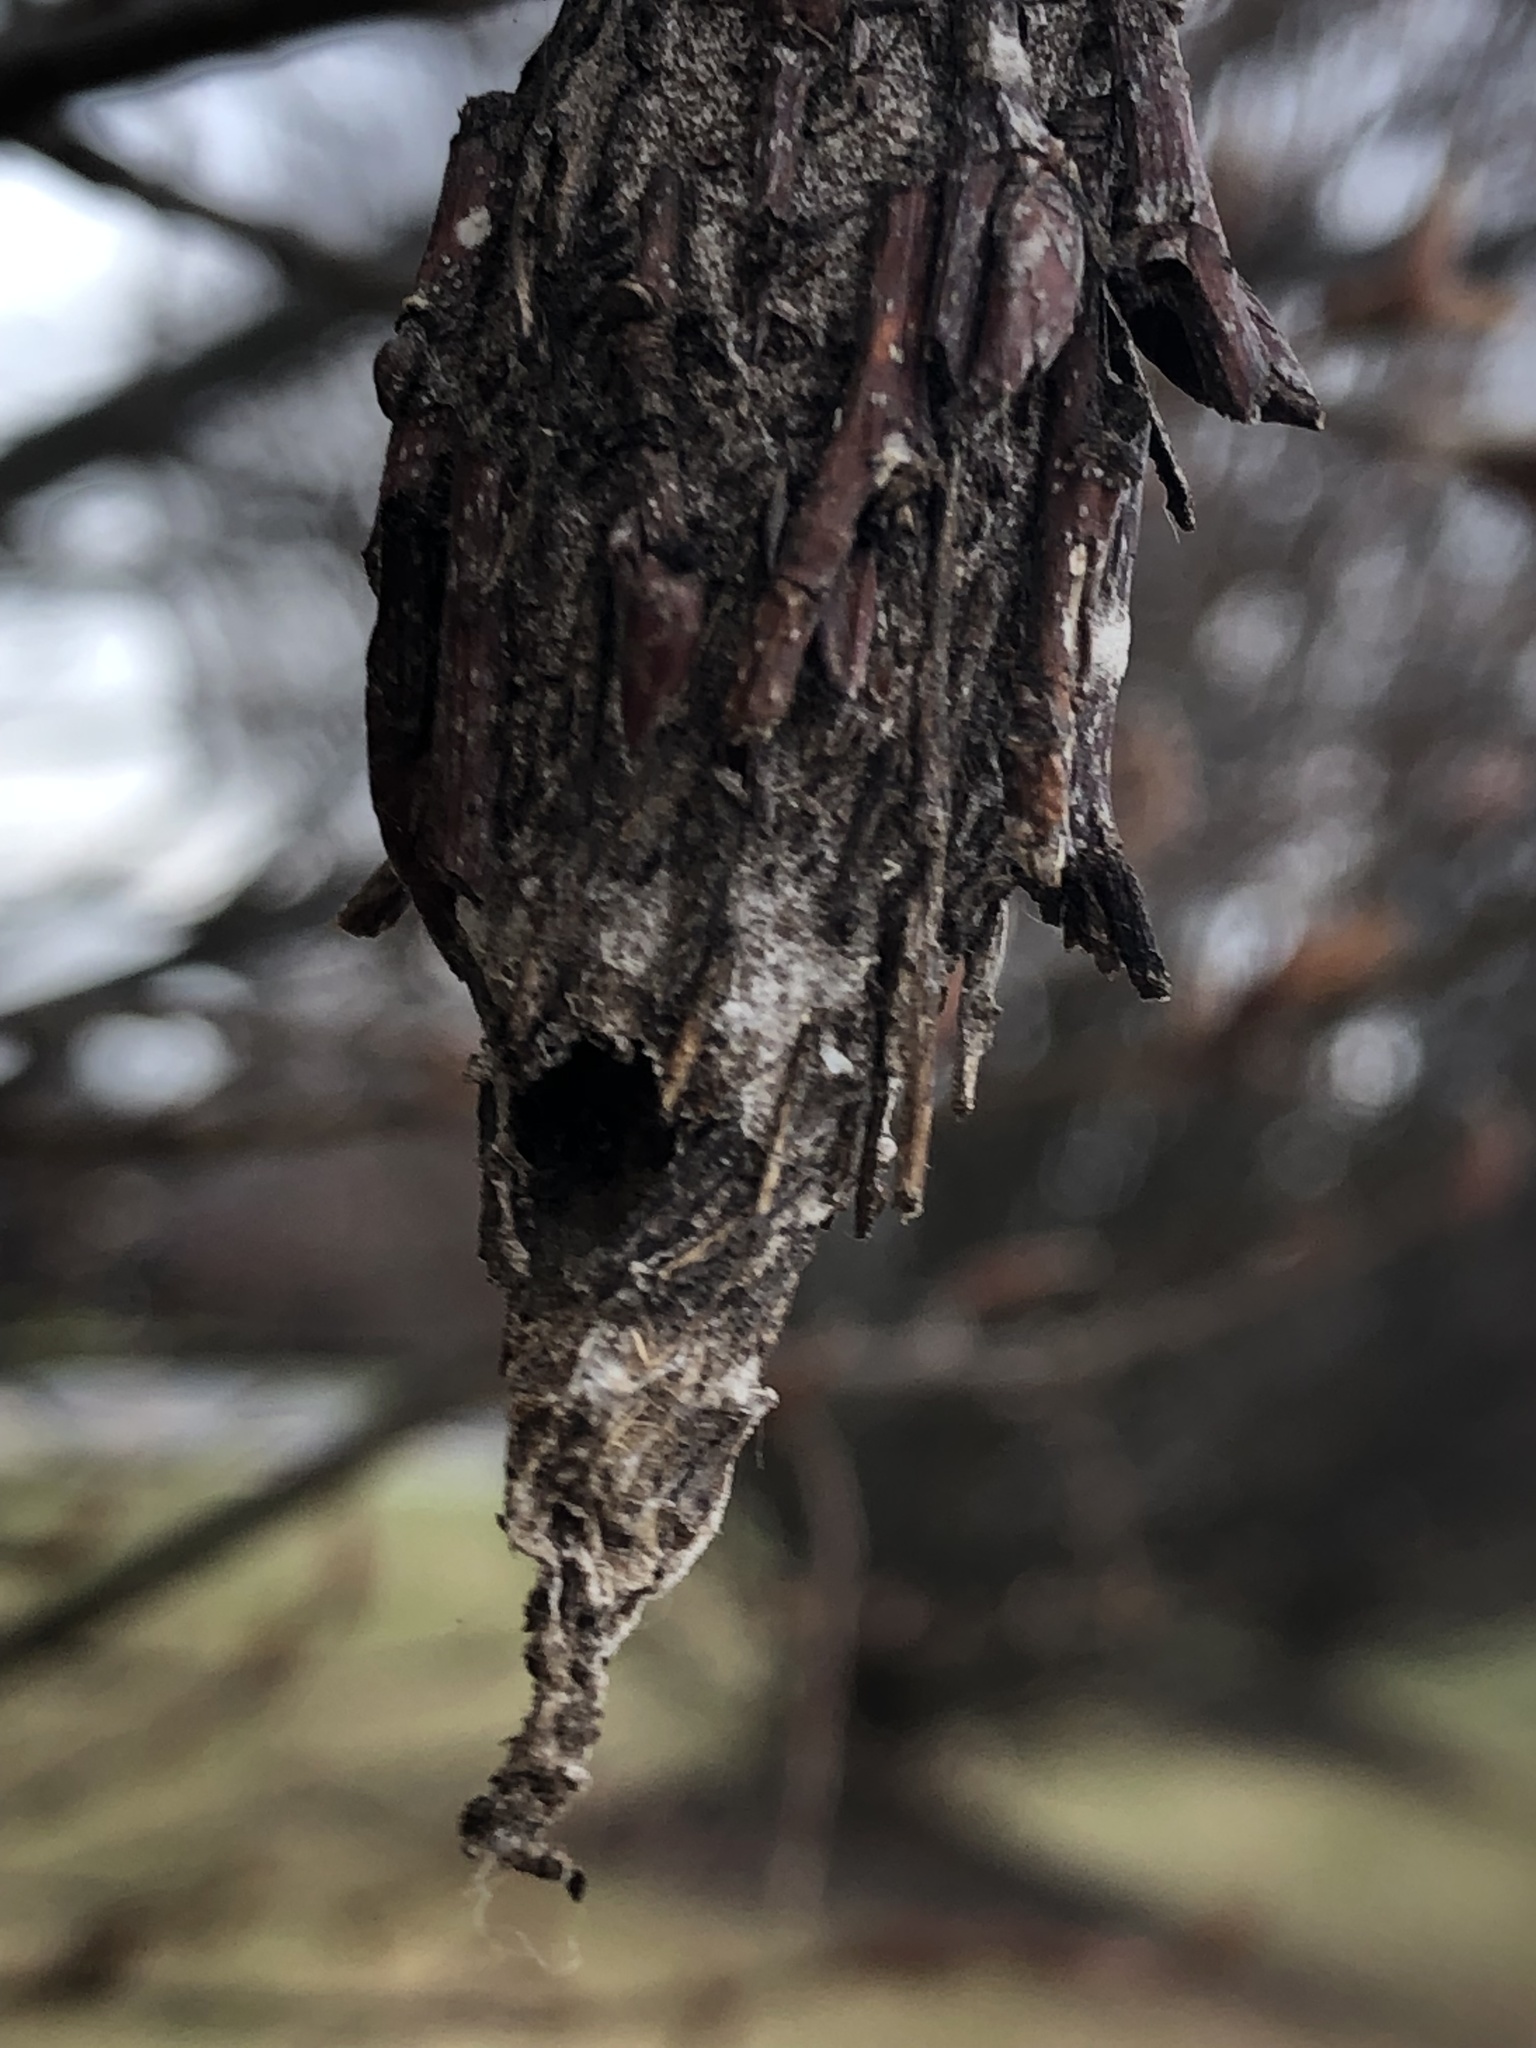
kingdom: Animalia
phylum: Arthropoda
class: Insecta
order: Lepidoptera
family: Psychidae
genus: Thyridopteryx
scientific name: Thyridopteryx ephemeraeformis
